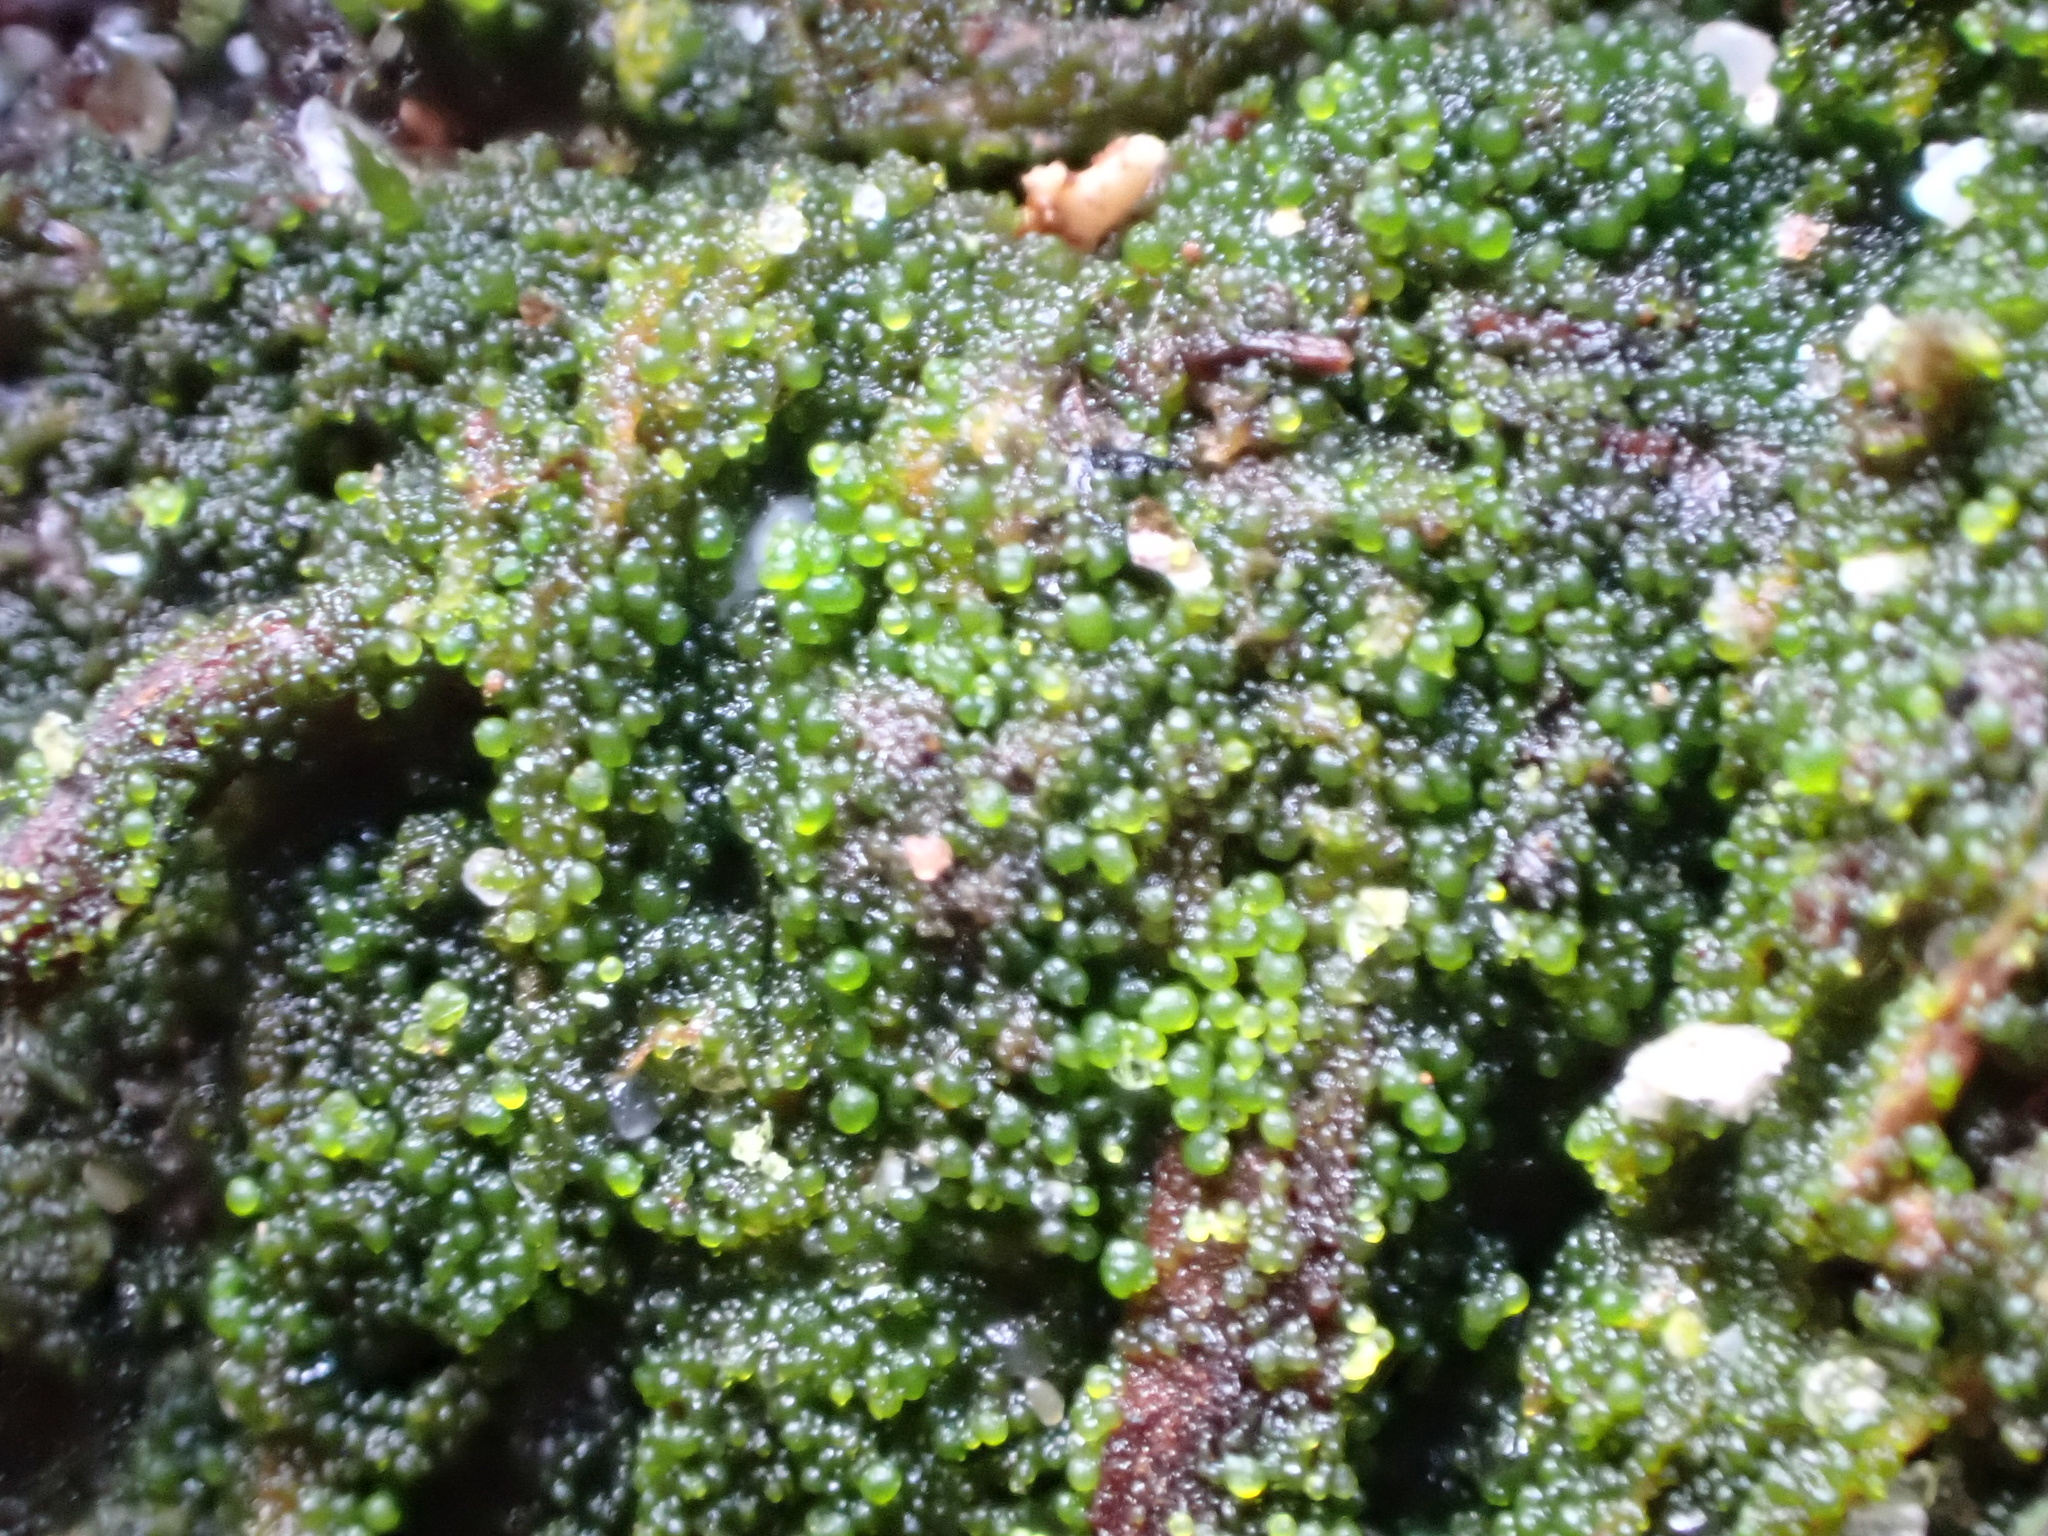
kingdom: Fungi
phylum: Basidiomycota
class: Agaricomycetes
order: Agaricales
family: Hygrophoraceae
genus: Lichenomphalia
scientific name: Lichenomphalia
